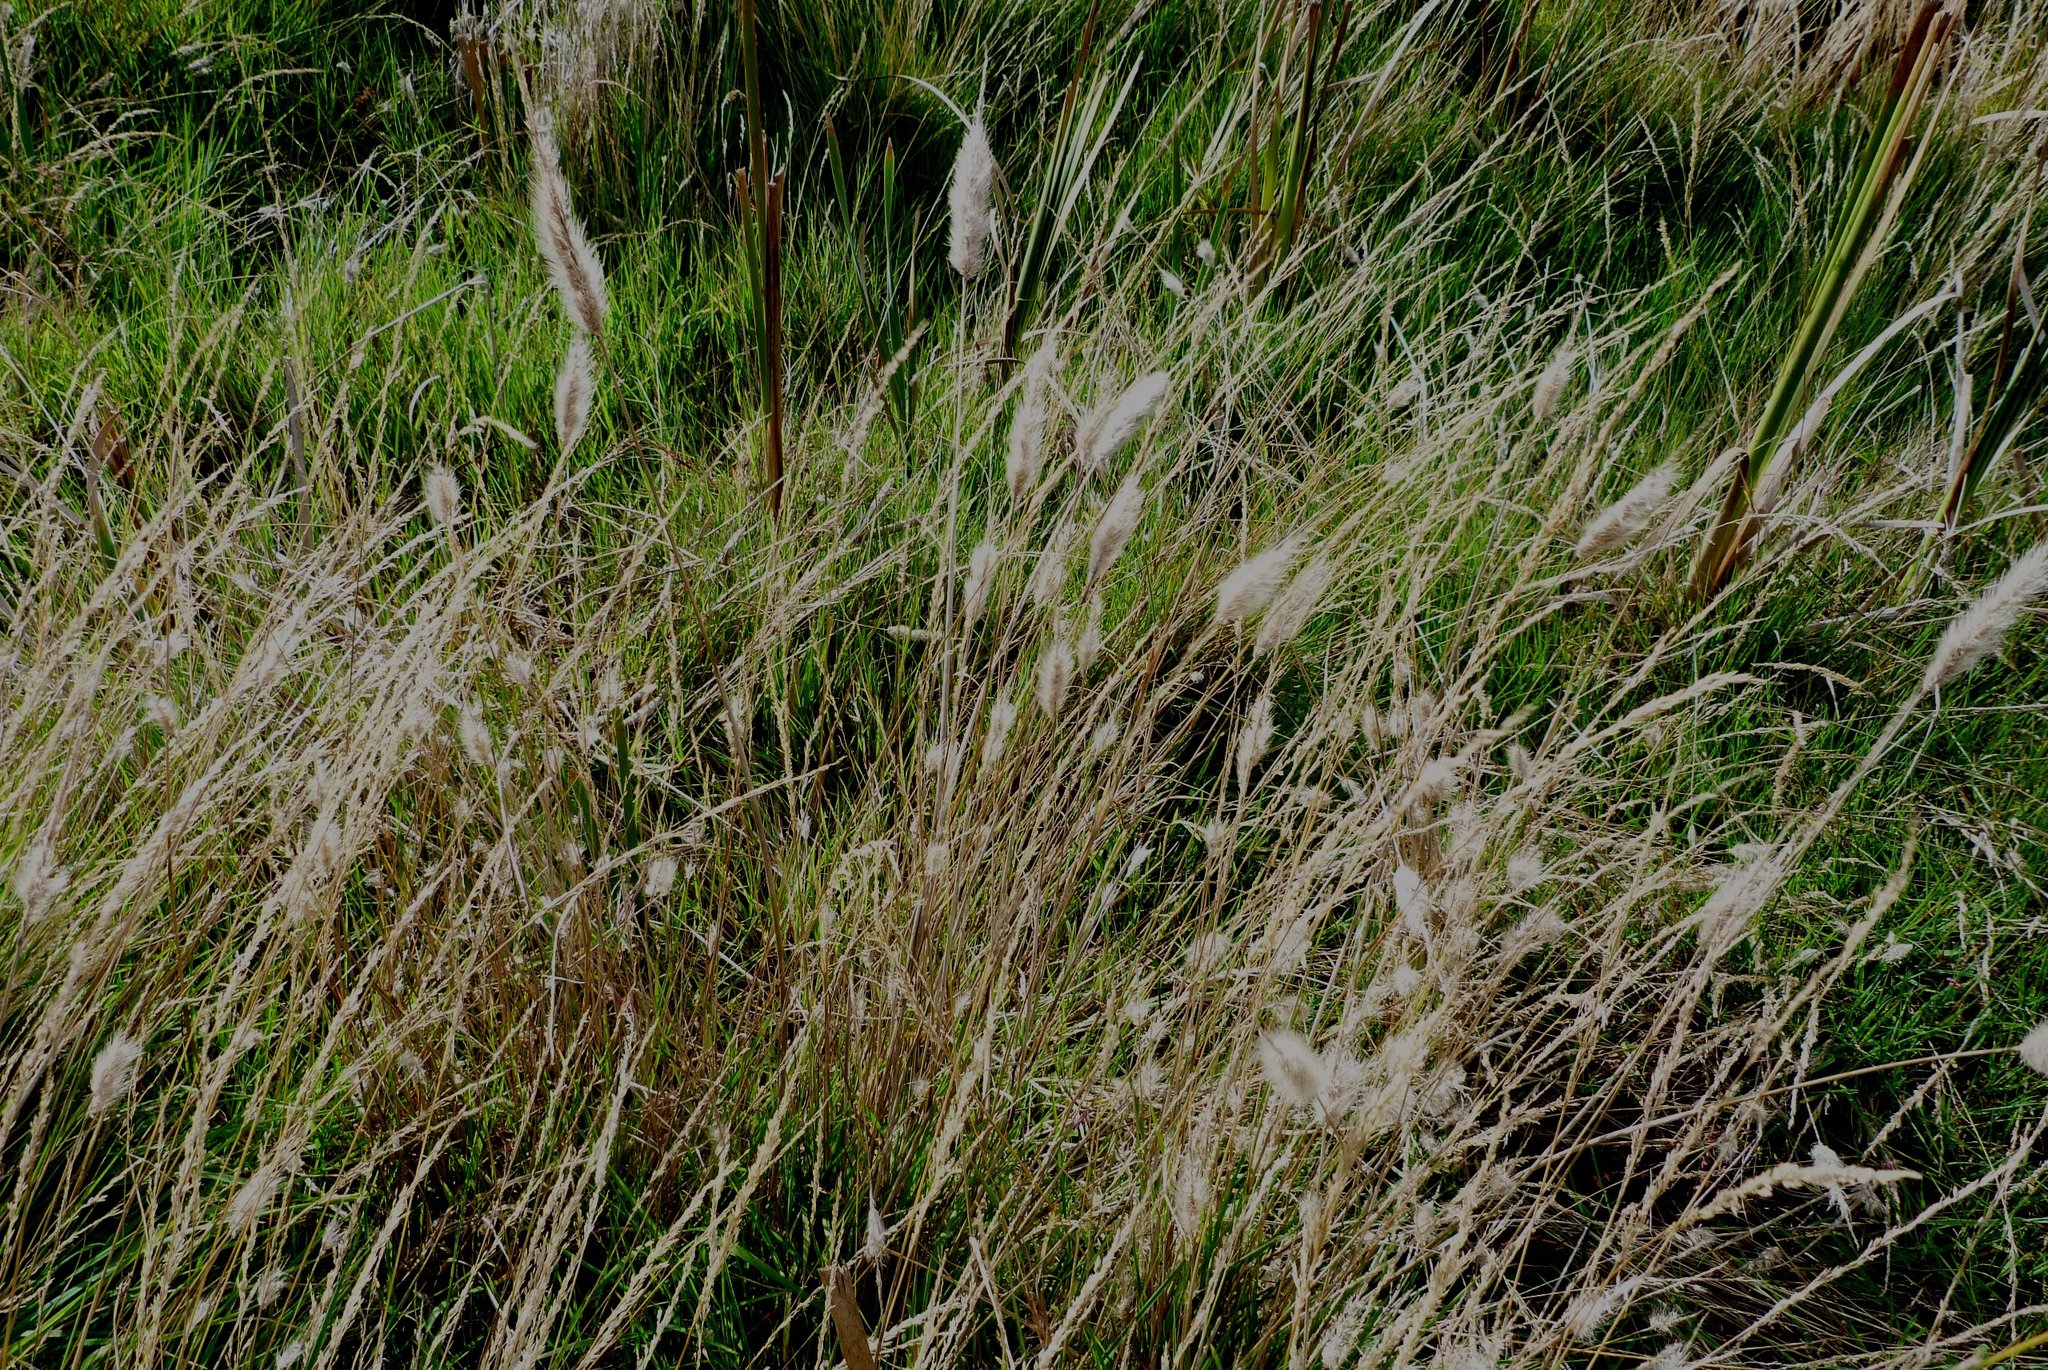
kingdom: Plantae
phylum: Tracheophyta
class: Liliopsida
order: Poales
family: Poaceae
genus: Cenchrus
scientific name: Cenchrus alopecuroides
